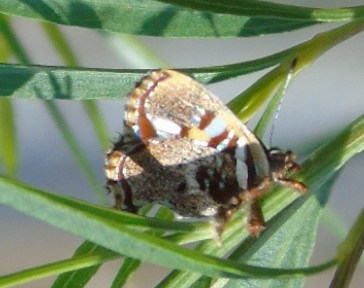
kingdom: Animalia
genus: Anteros
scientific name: Anteros carausius
